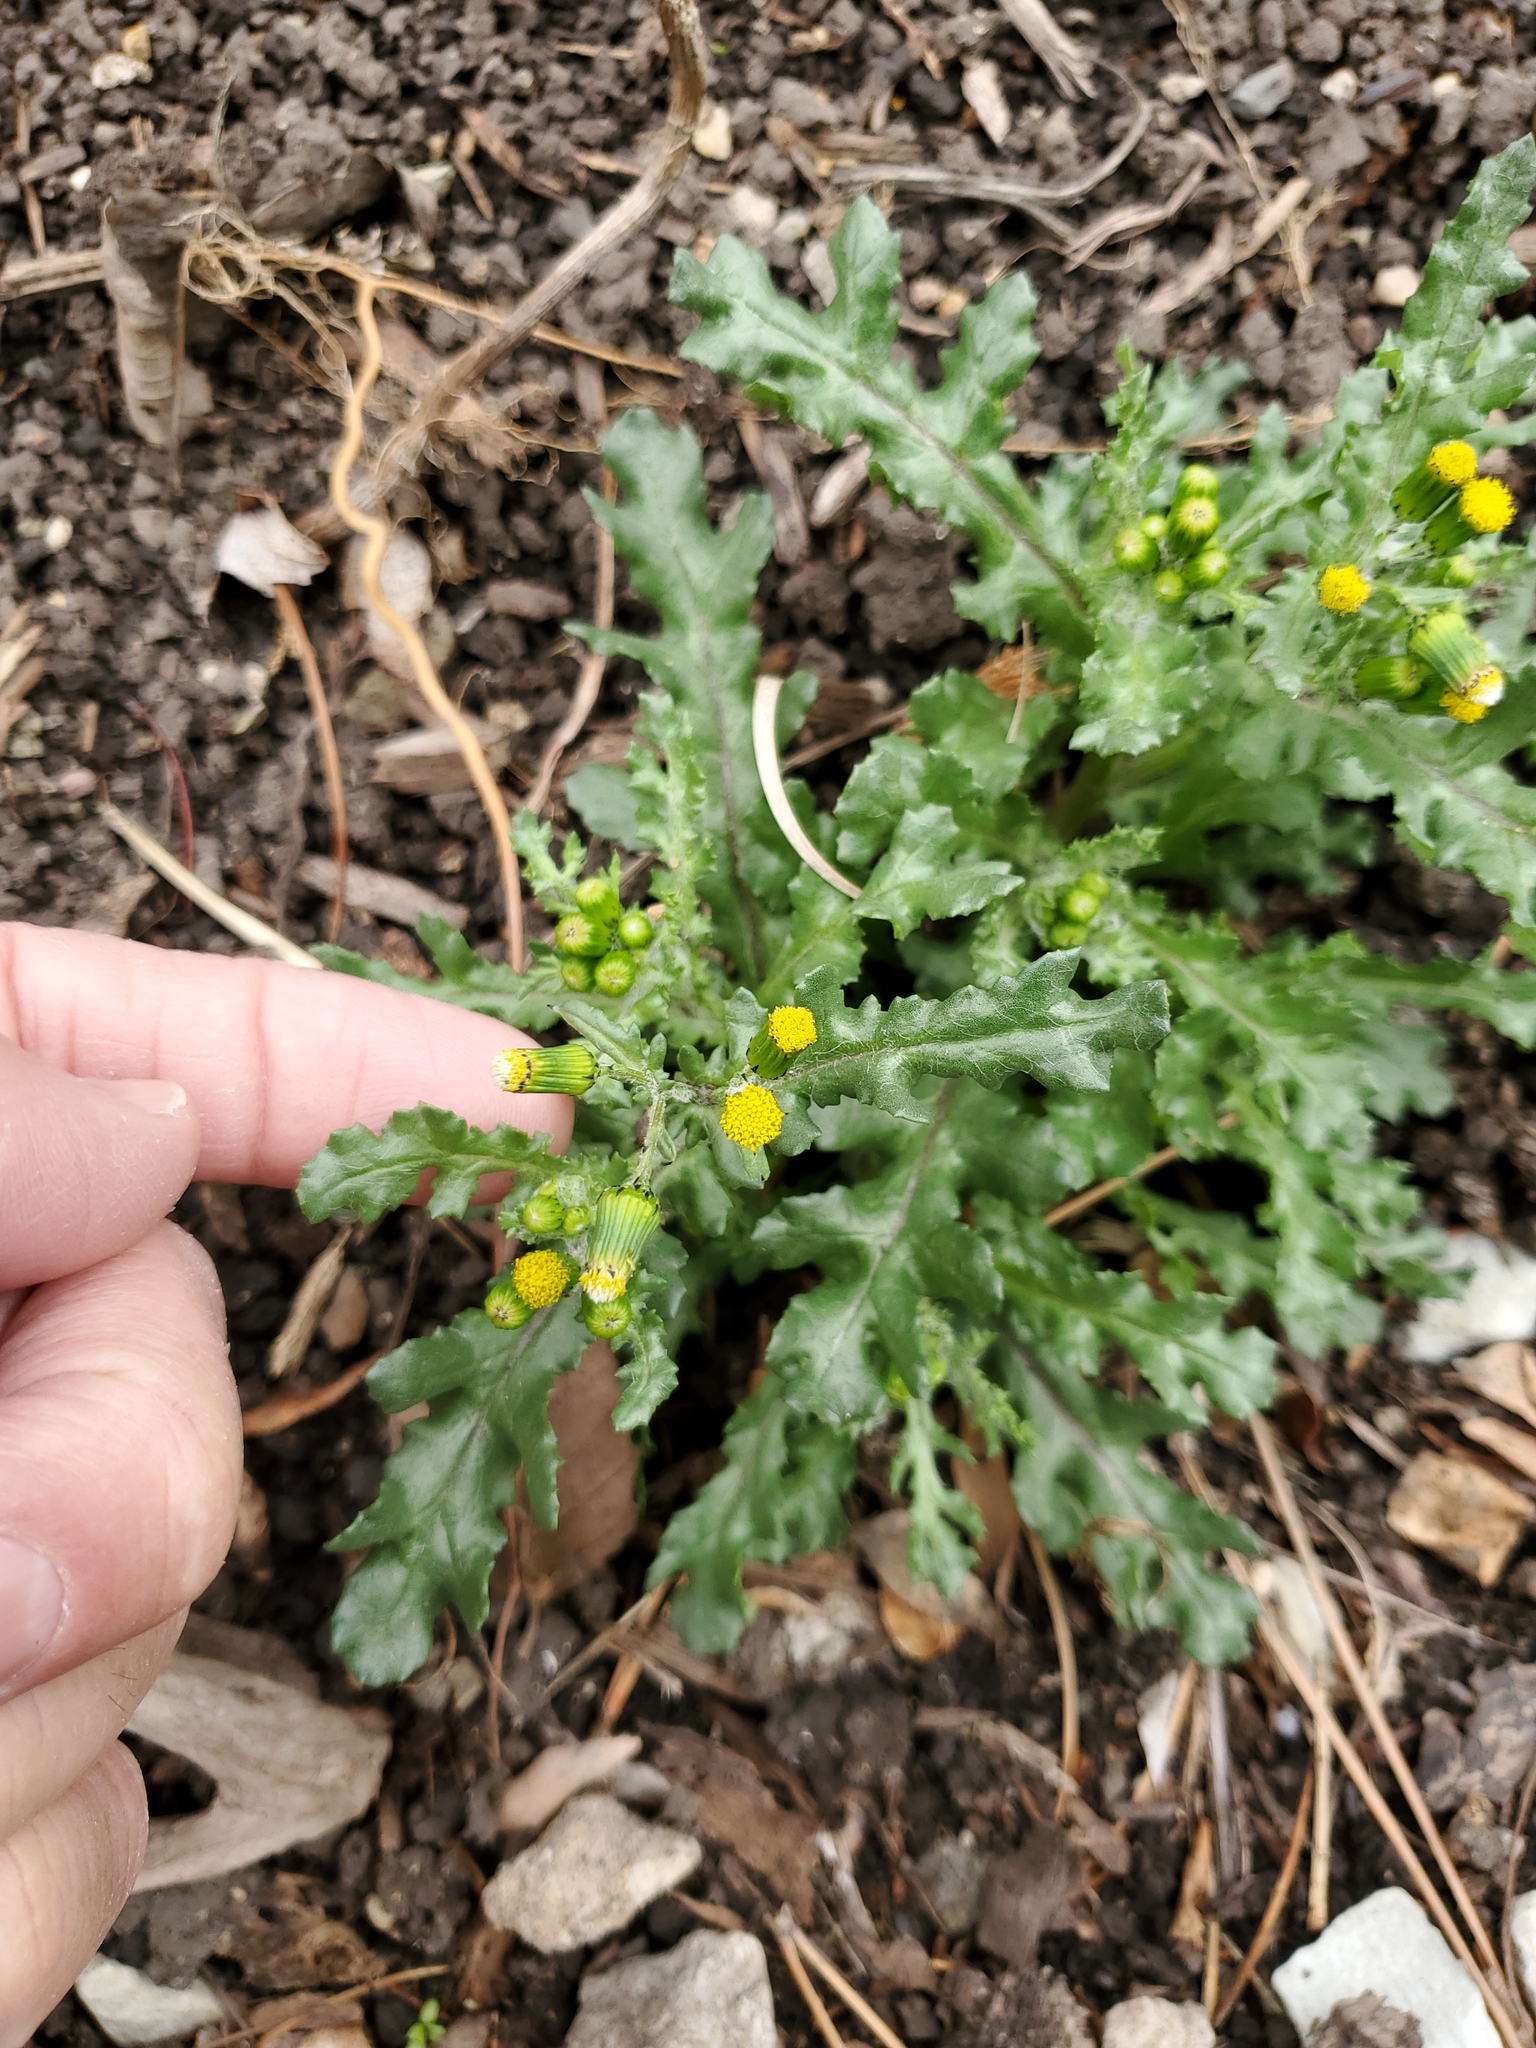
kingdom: Plantae
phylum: Tracheophyta
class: Magnoliopsida
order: Asterales
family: Asteraceae
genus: Senecio
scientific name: Senecio vulgaris
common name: Old-man-in-the-spring
